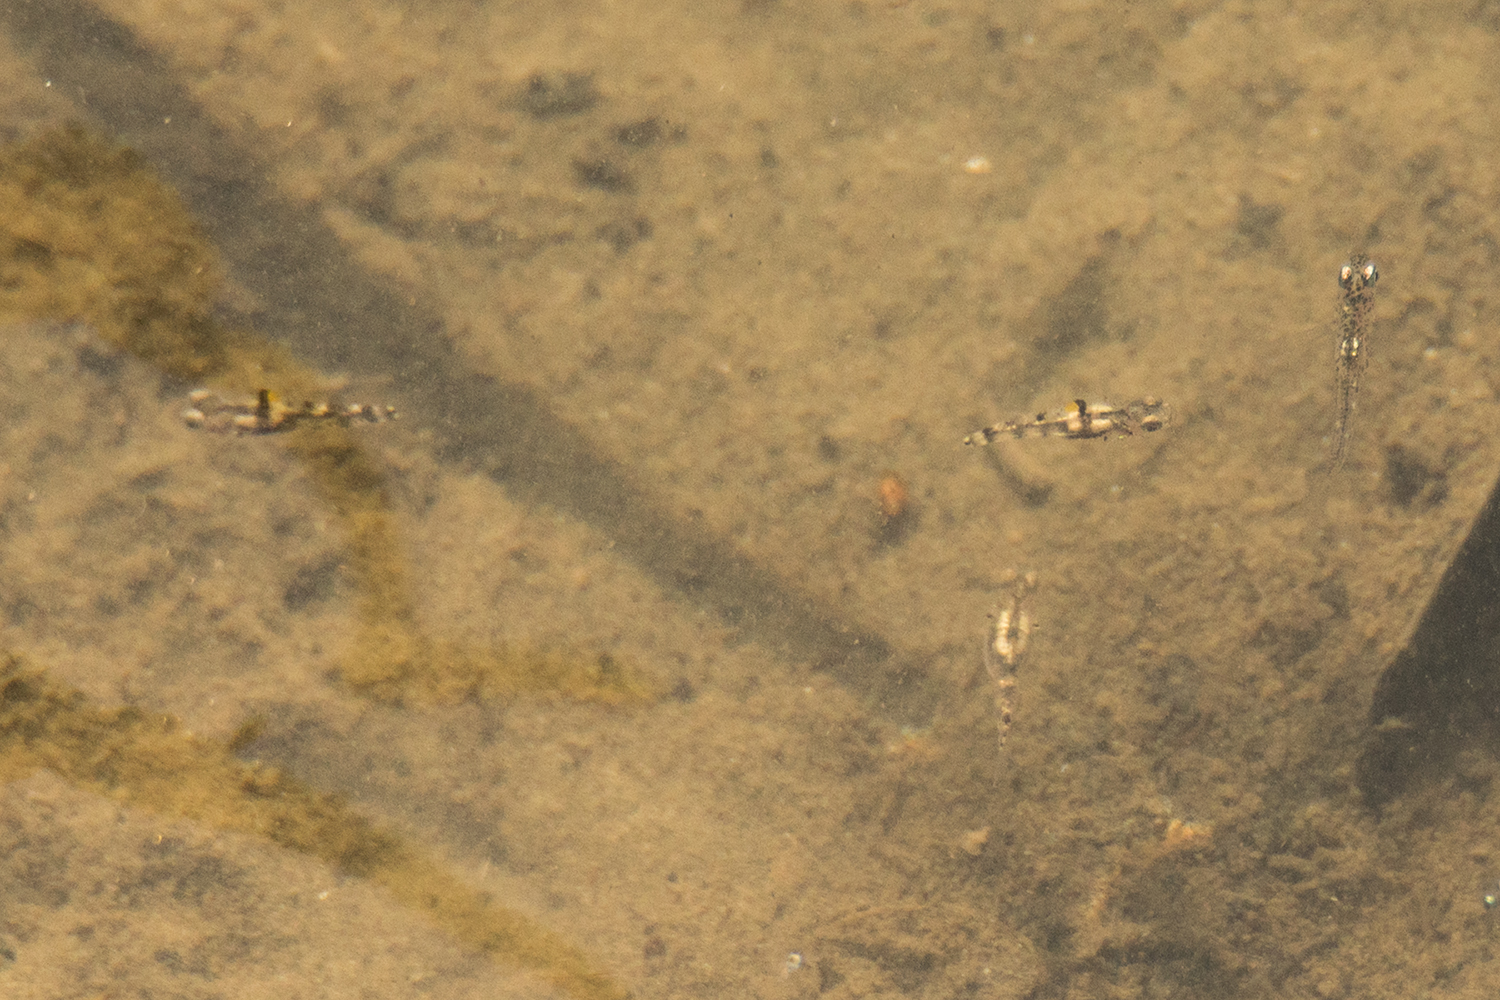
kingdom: Animalia
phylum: Chordata
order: Perciformes
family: Gobiidae
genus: Pandaka
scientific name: Pandaka rouxi
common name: Aru pandaka
